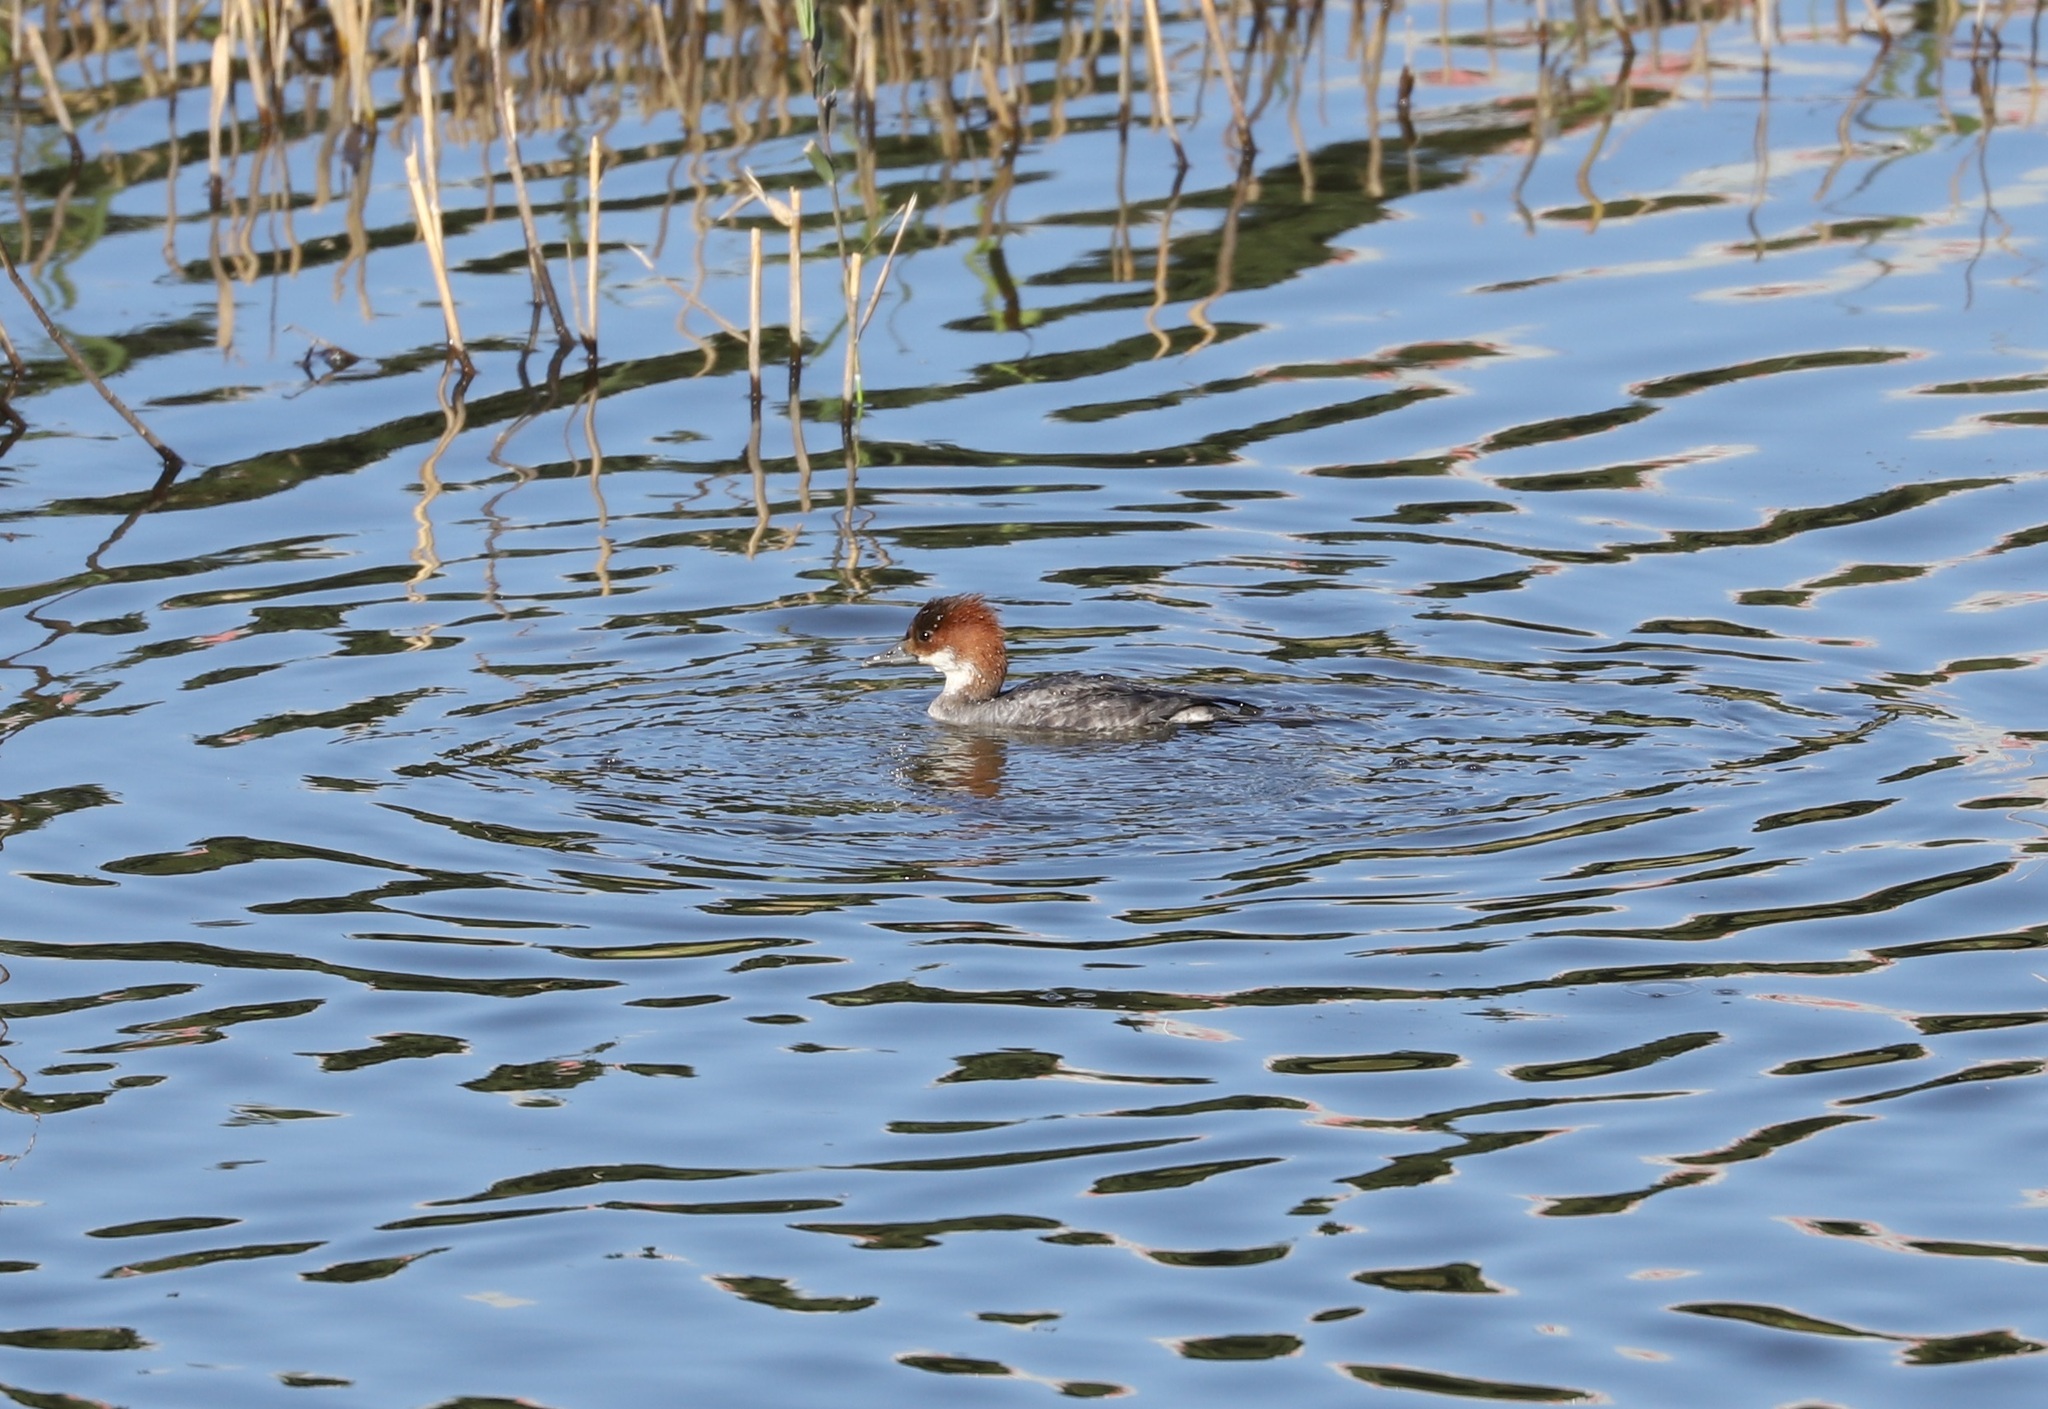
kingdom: Animalia
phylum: Chordata
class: Aves
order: Anseriformes
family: Anatidae
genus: Mergellus
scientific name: Mergellus albellus
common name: Smew
